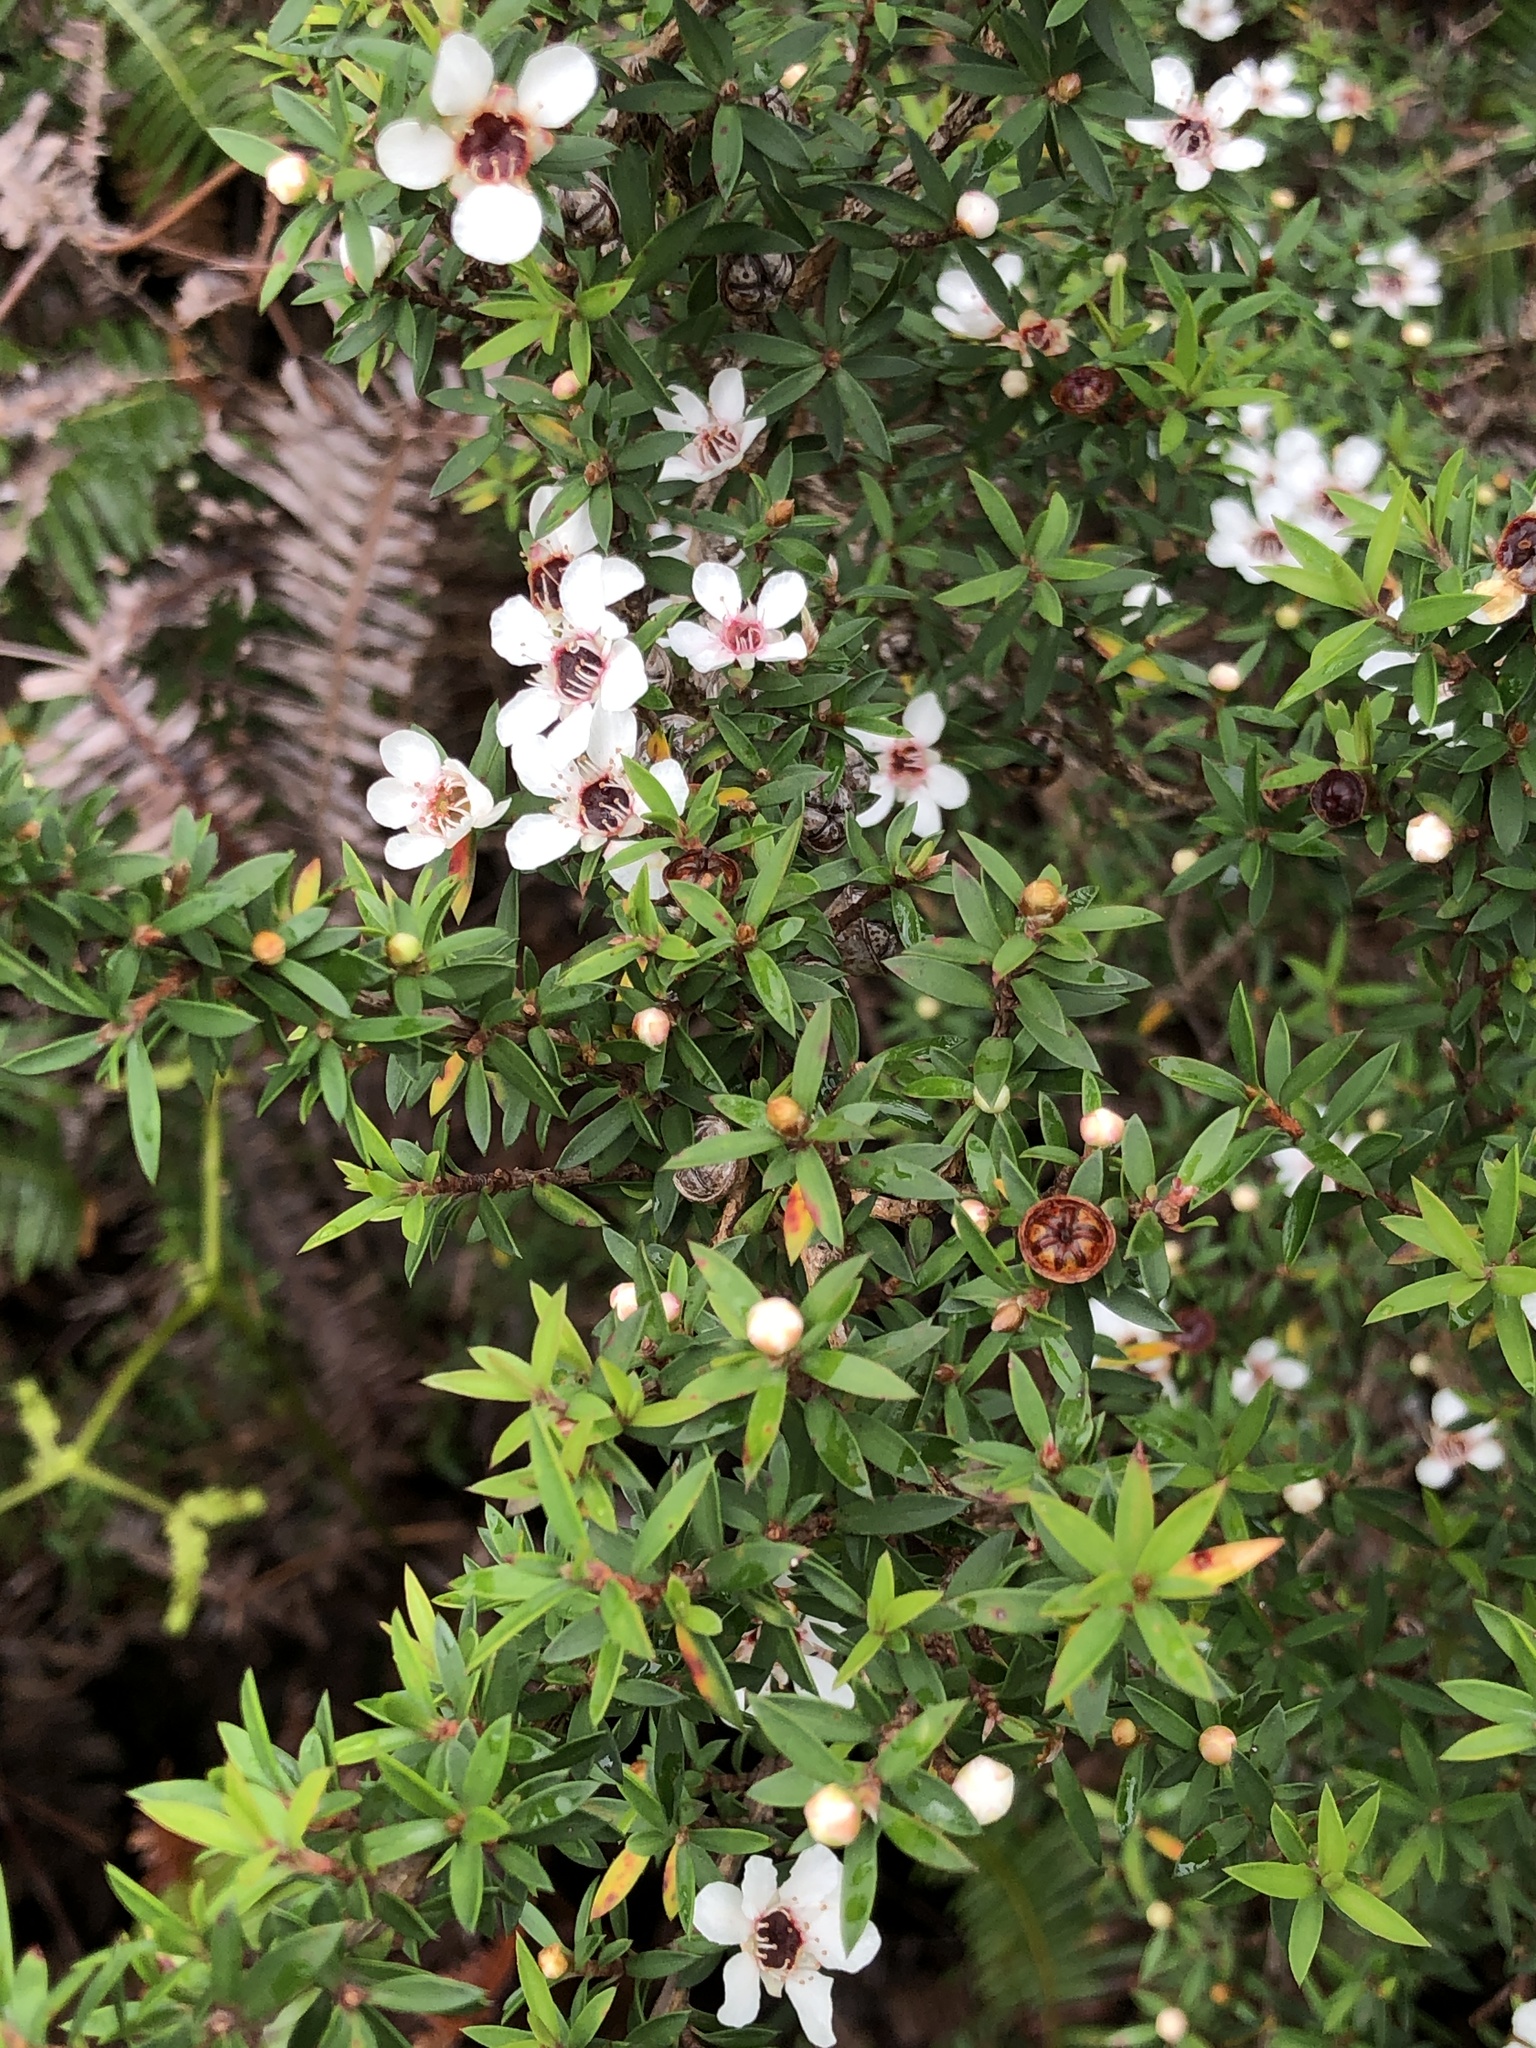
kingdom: Plantae
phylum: Tracheophyta
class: Magnoliopsida
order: Myrtales
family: Myrtaceae
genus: Leptospermum
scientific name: Leptospermum scoparium
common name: Broom tea-tree
